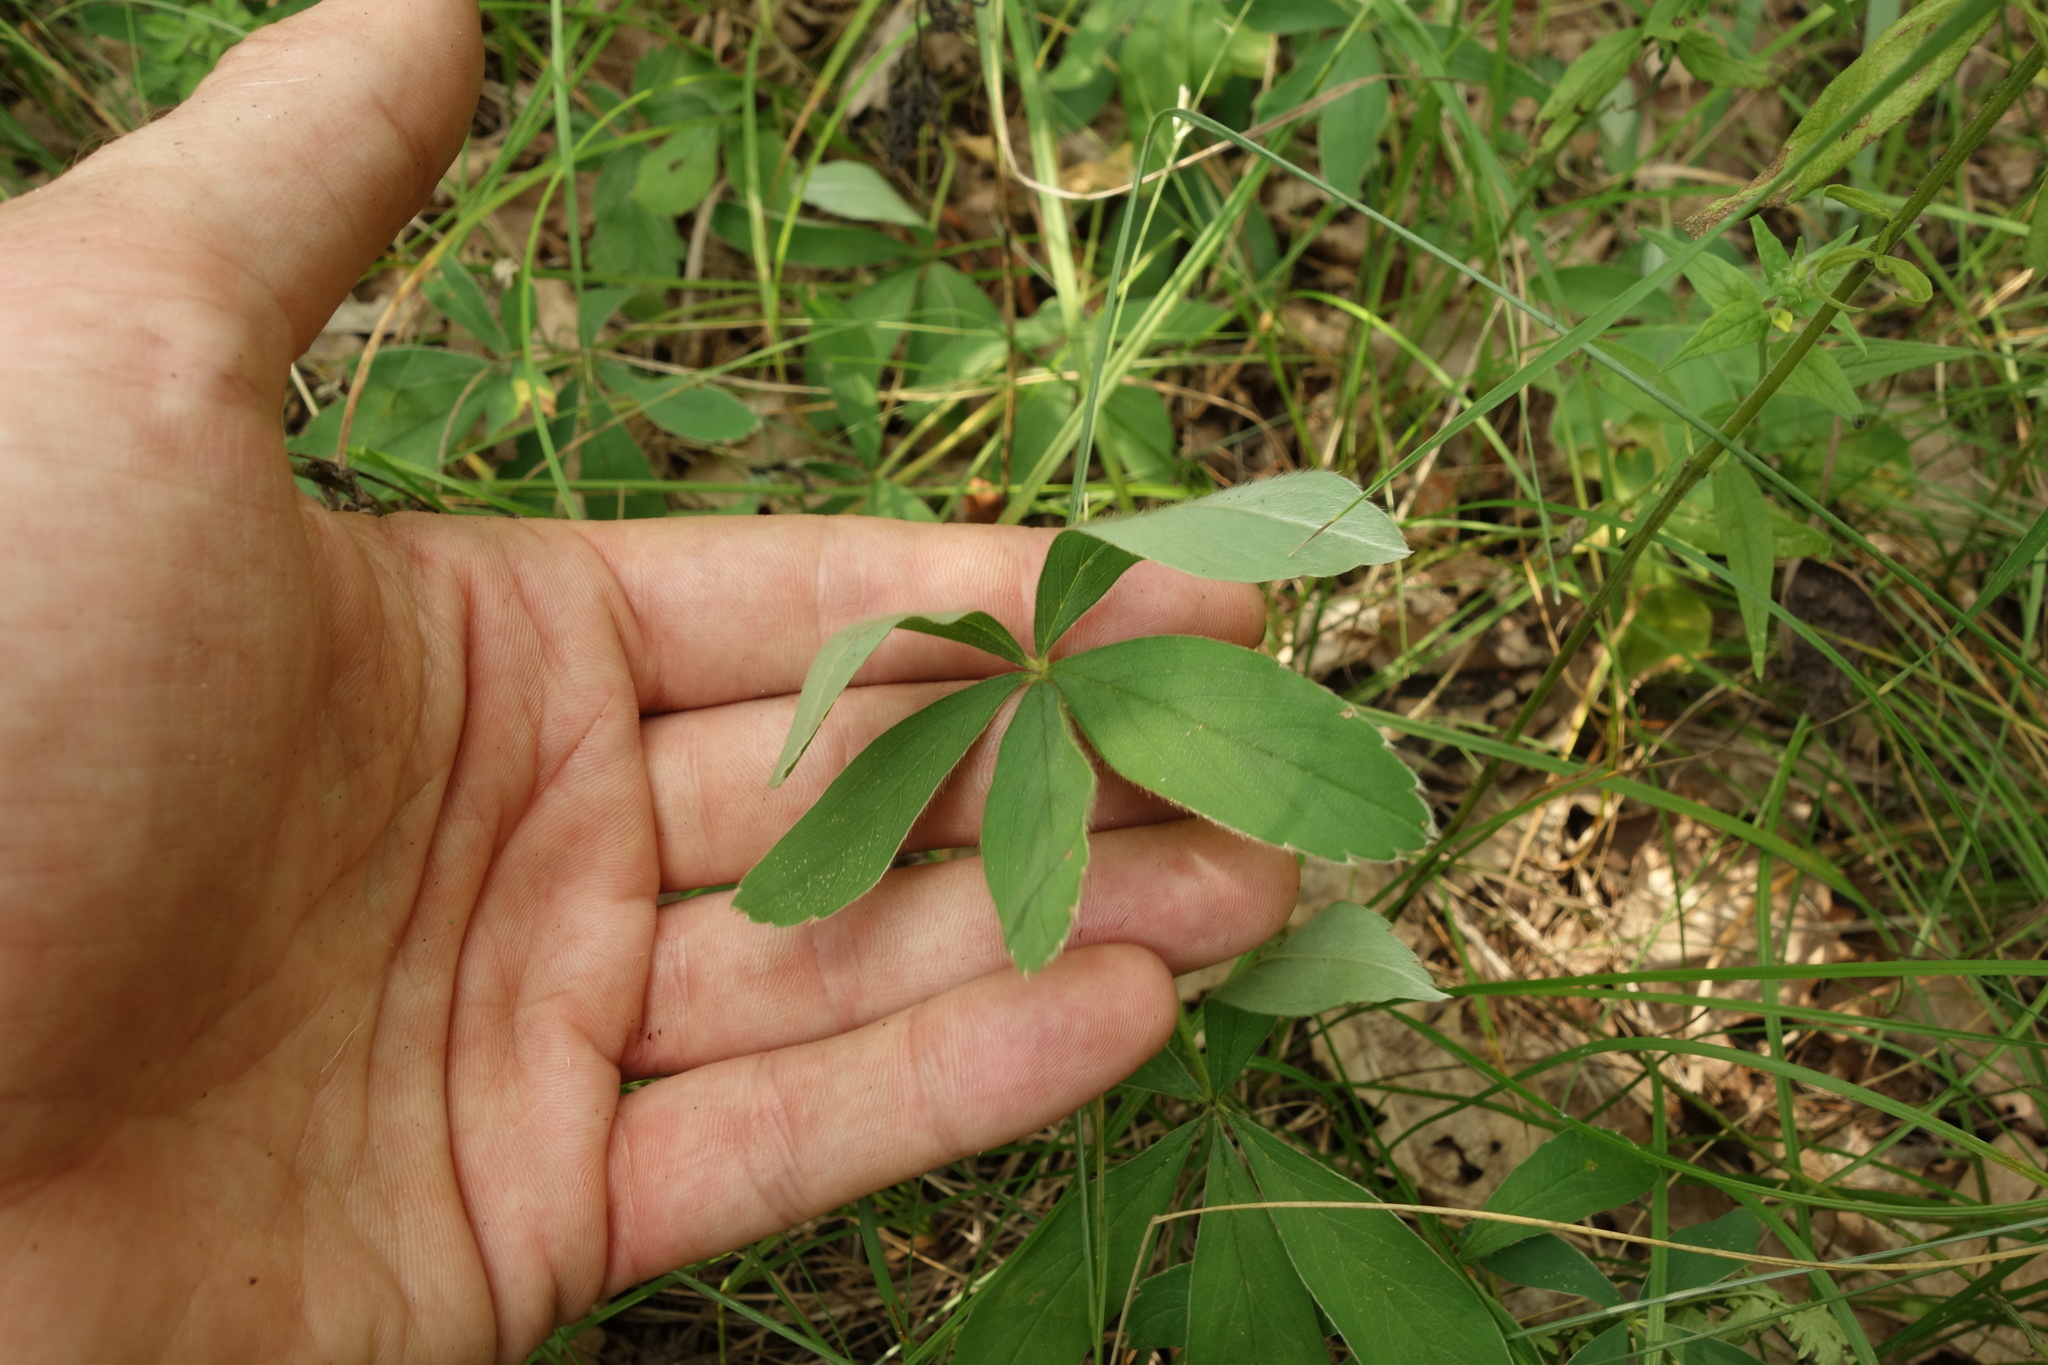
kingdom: Plantae
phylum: Tracheophyta
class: Magnoliopsida
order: Rosales
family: Rosaceae
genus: Potentilla
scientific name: Potentilla alba
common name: White cinquefoil
